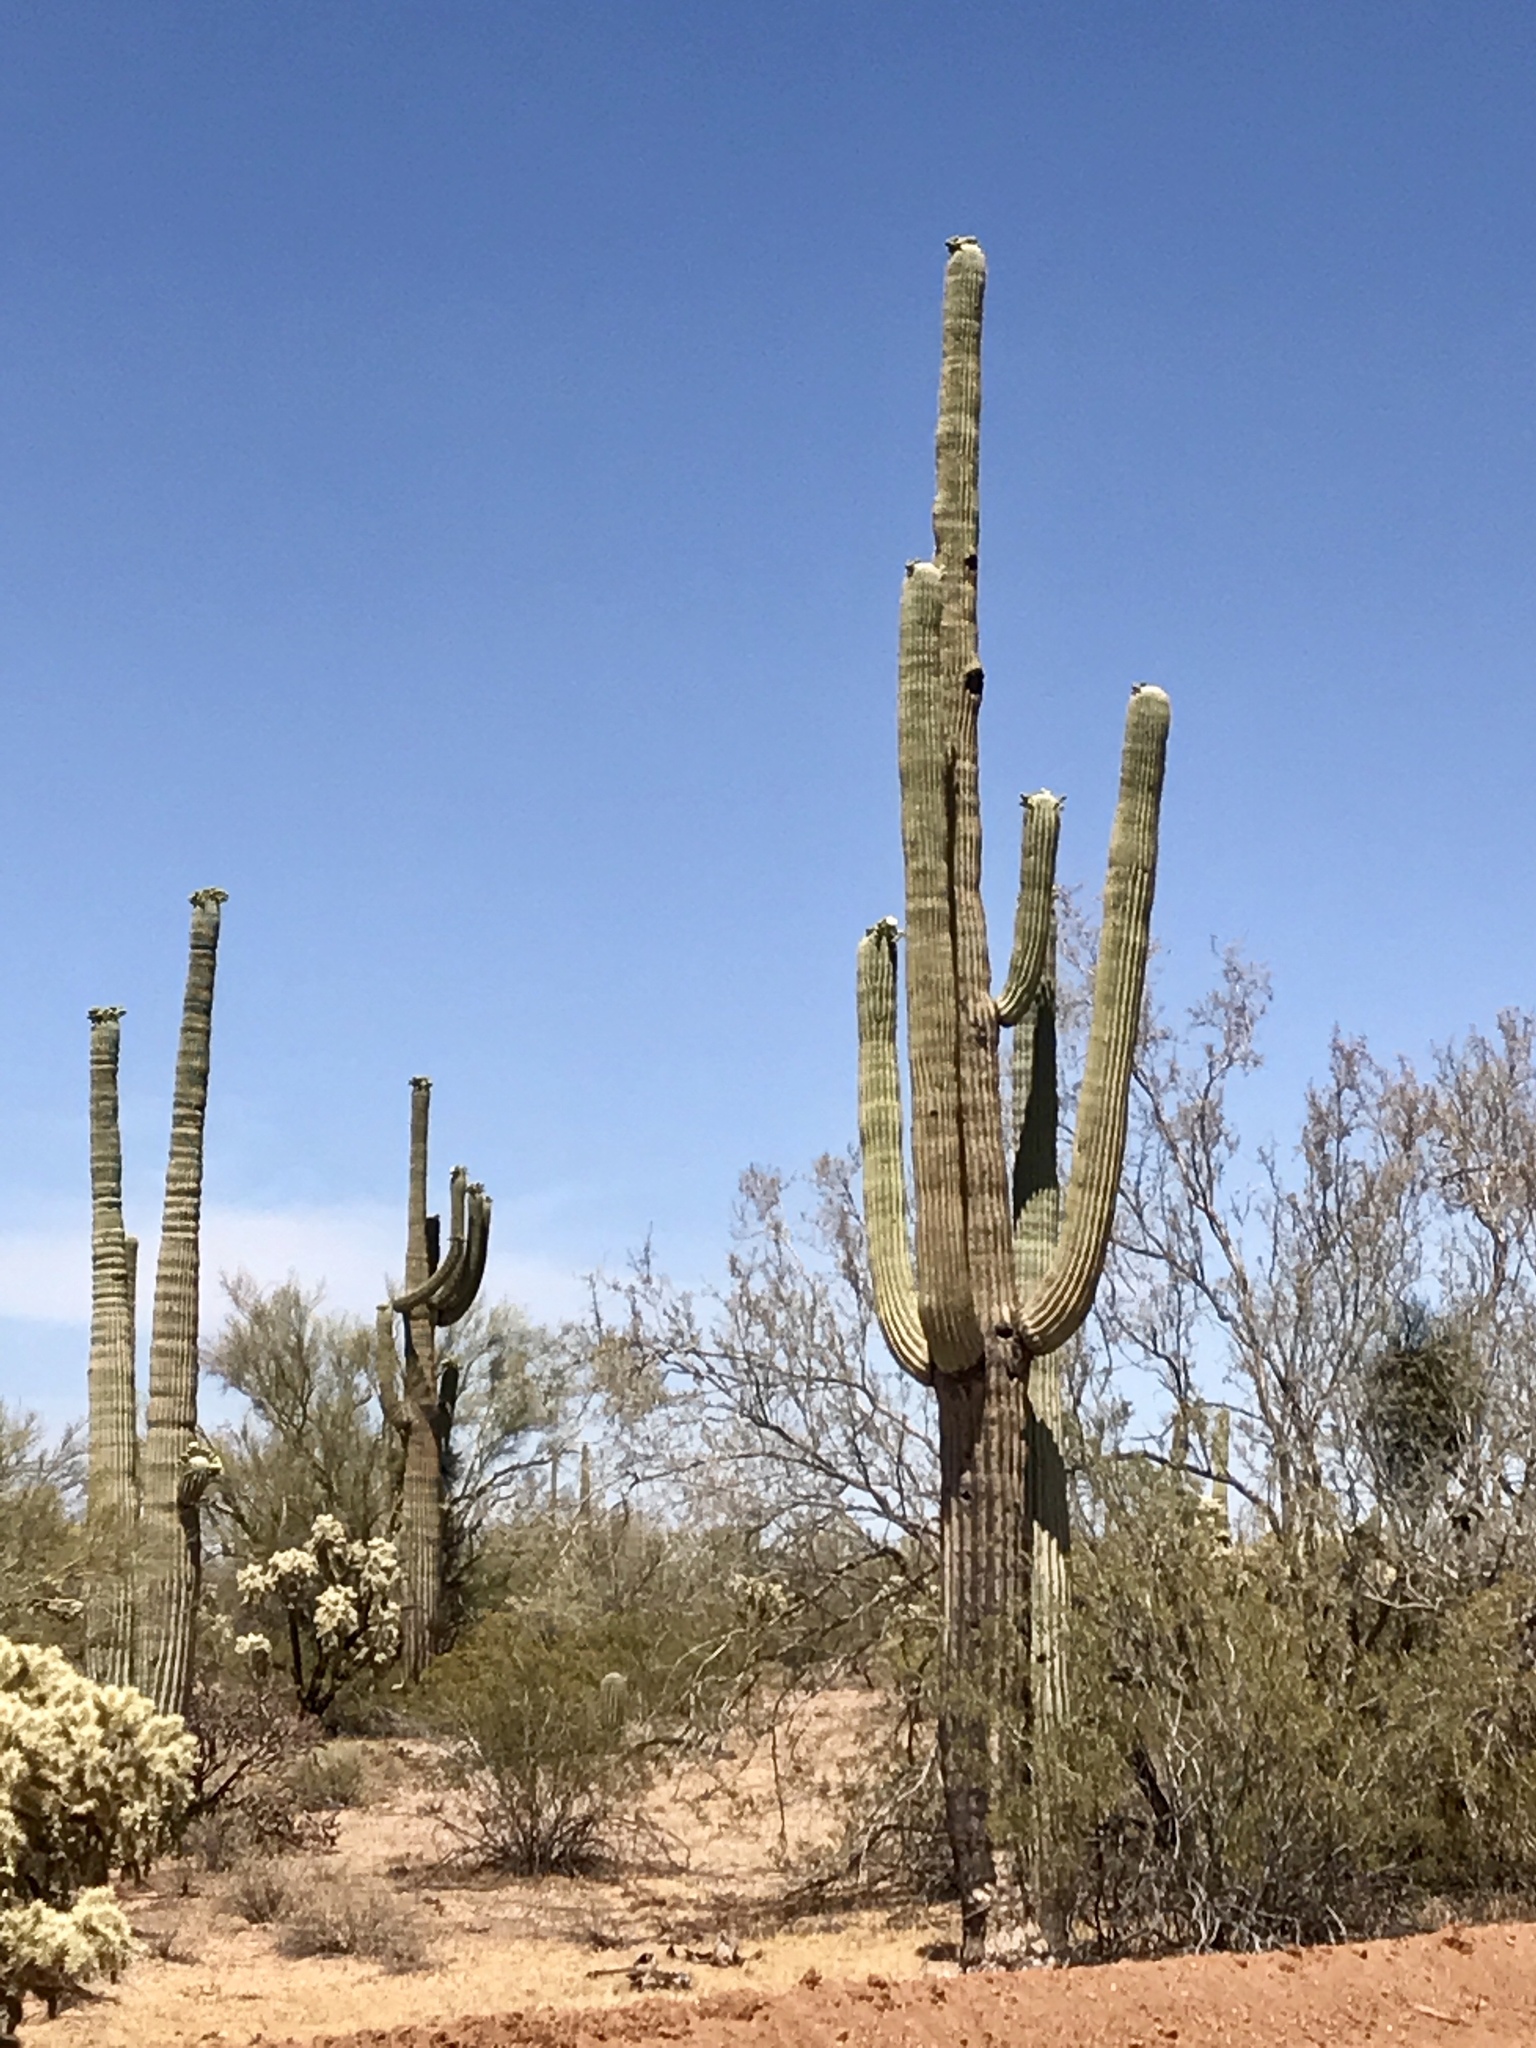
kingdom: Plantae
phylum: Tracheophyta
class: Magnoliopsida
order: Caryophyllales
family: Cactaceae
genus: Carnegiea
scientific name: Carnegiea gigantea
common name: Saguaro
